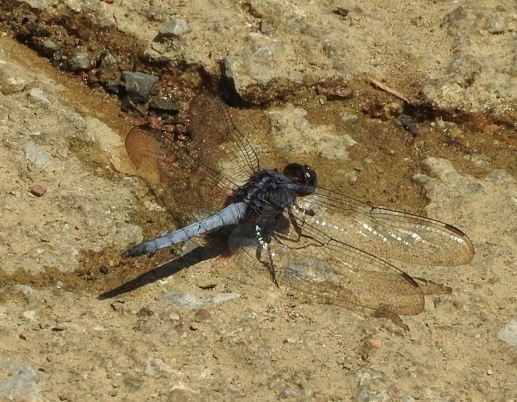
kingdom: Animalia
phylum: Arthropoda
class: Insecta
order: Odonata
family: Libellulidae
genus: Orthetrum
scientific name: Orthetrum glaucum
